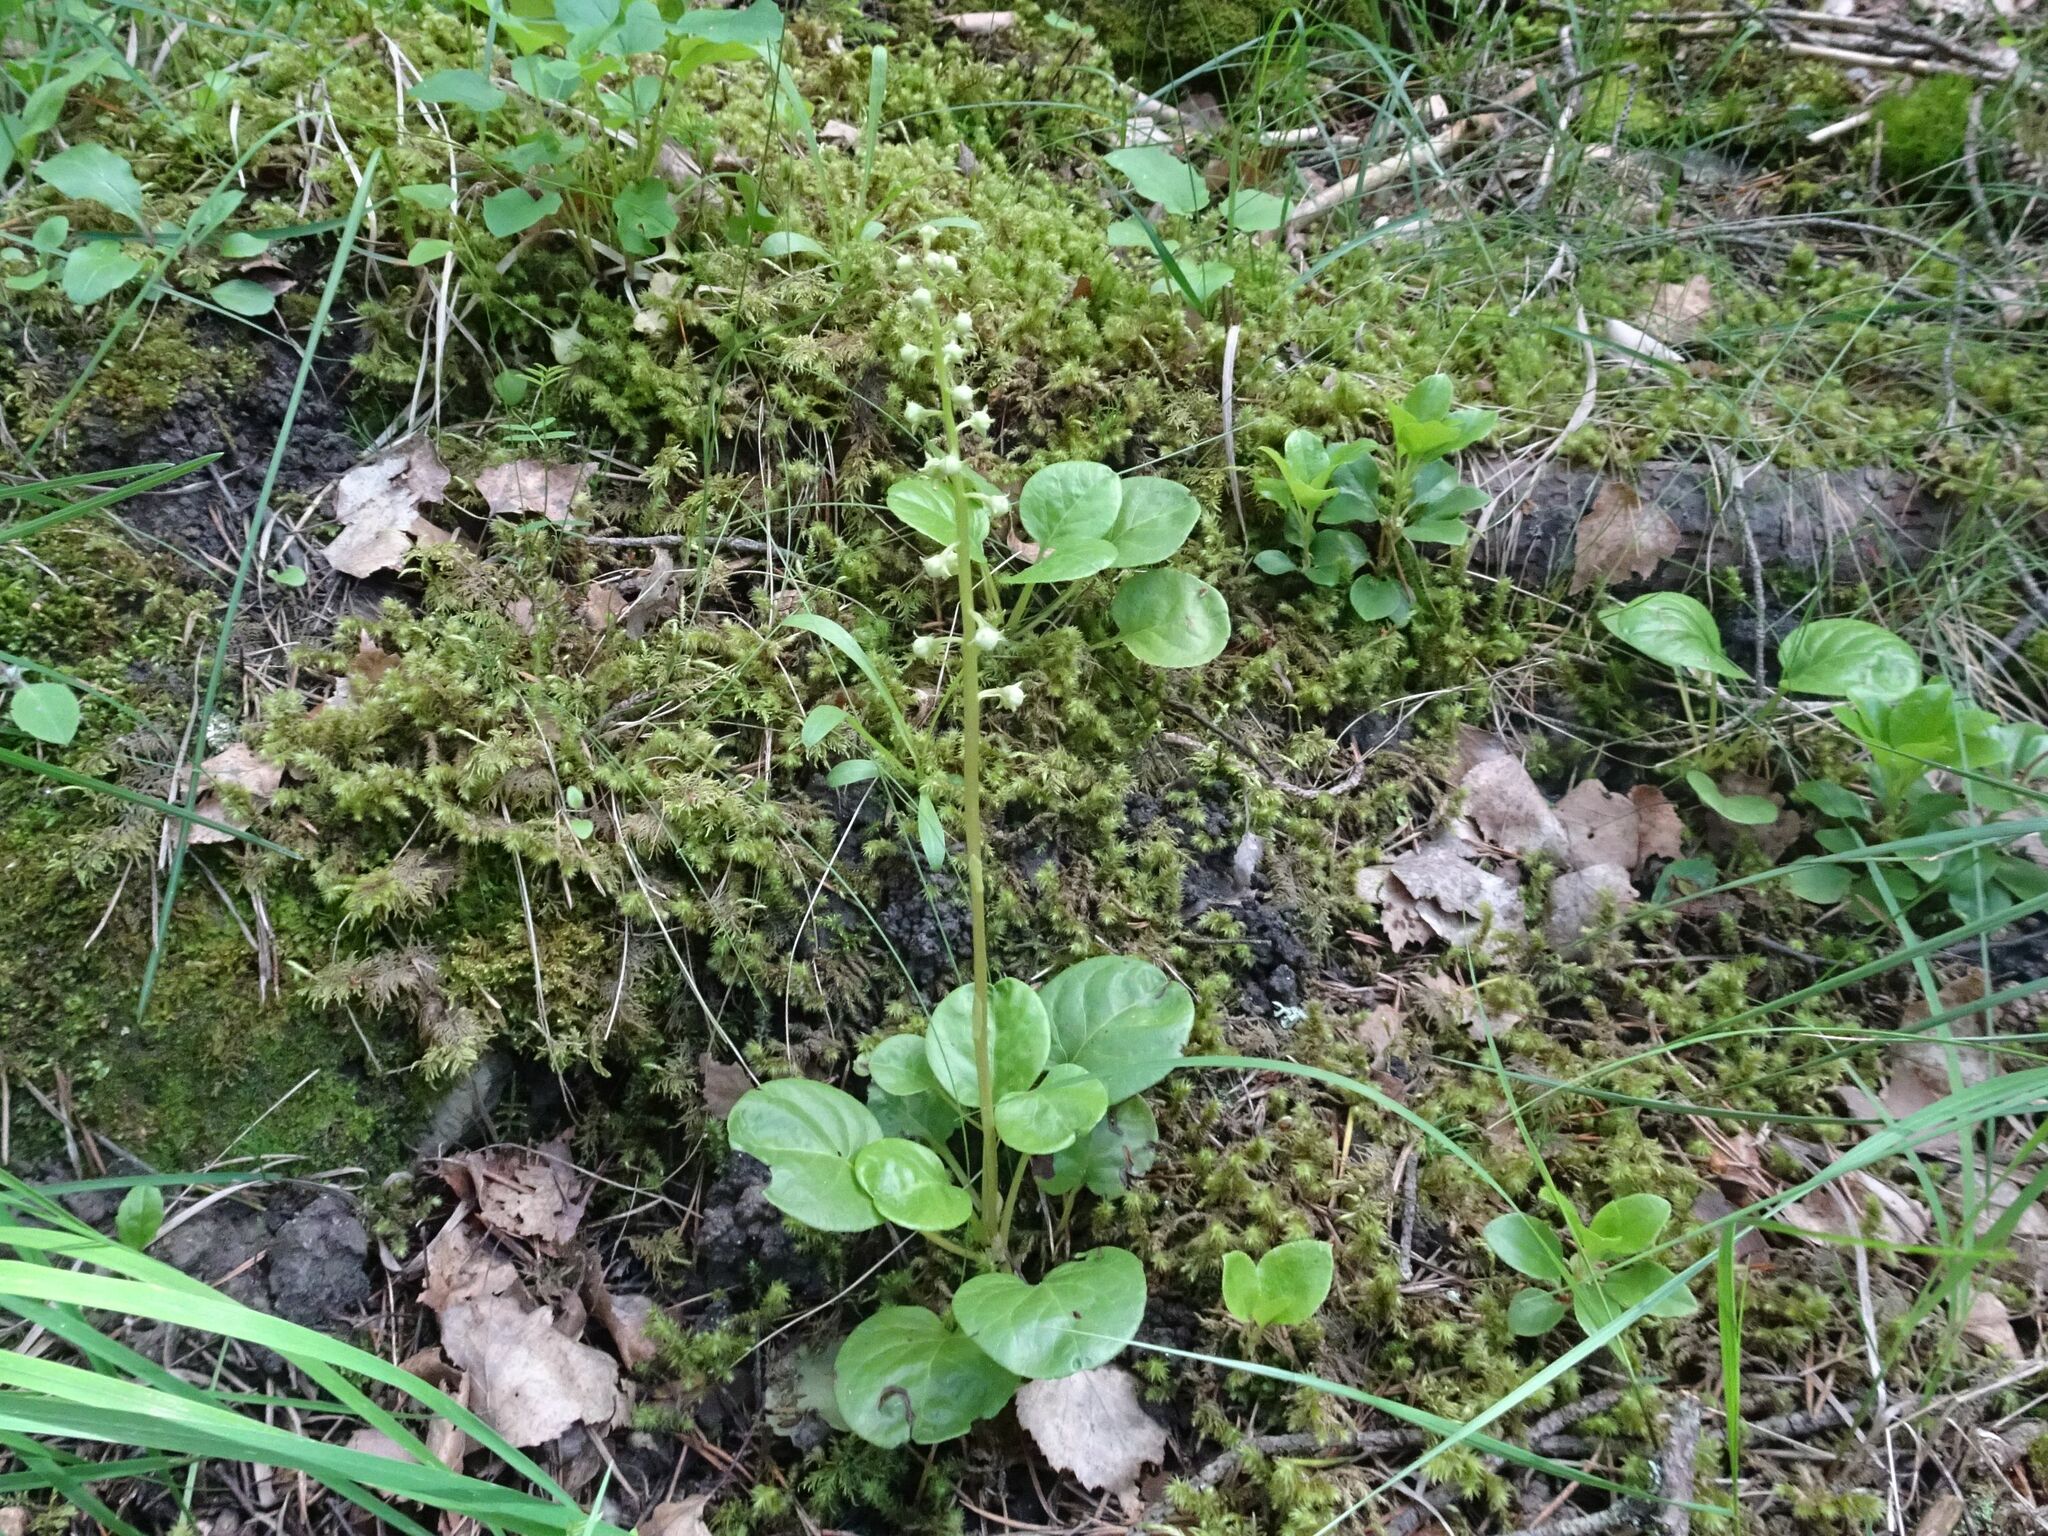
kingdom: Plantae
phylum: Tracheophyta
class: Magnoliopsida
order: Ericales
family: Ericaceae
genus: Pyrola
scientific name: Pyrola rotundifolia
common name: Round-leaved wintergreen
